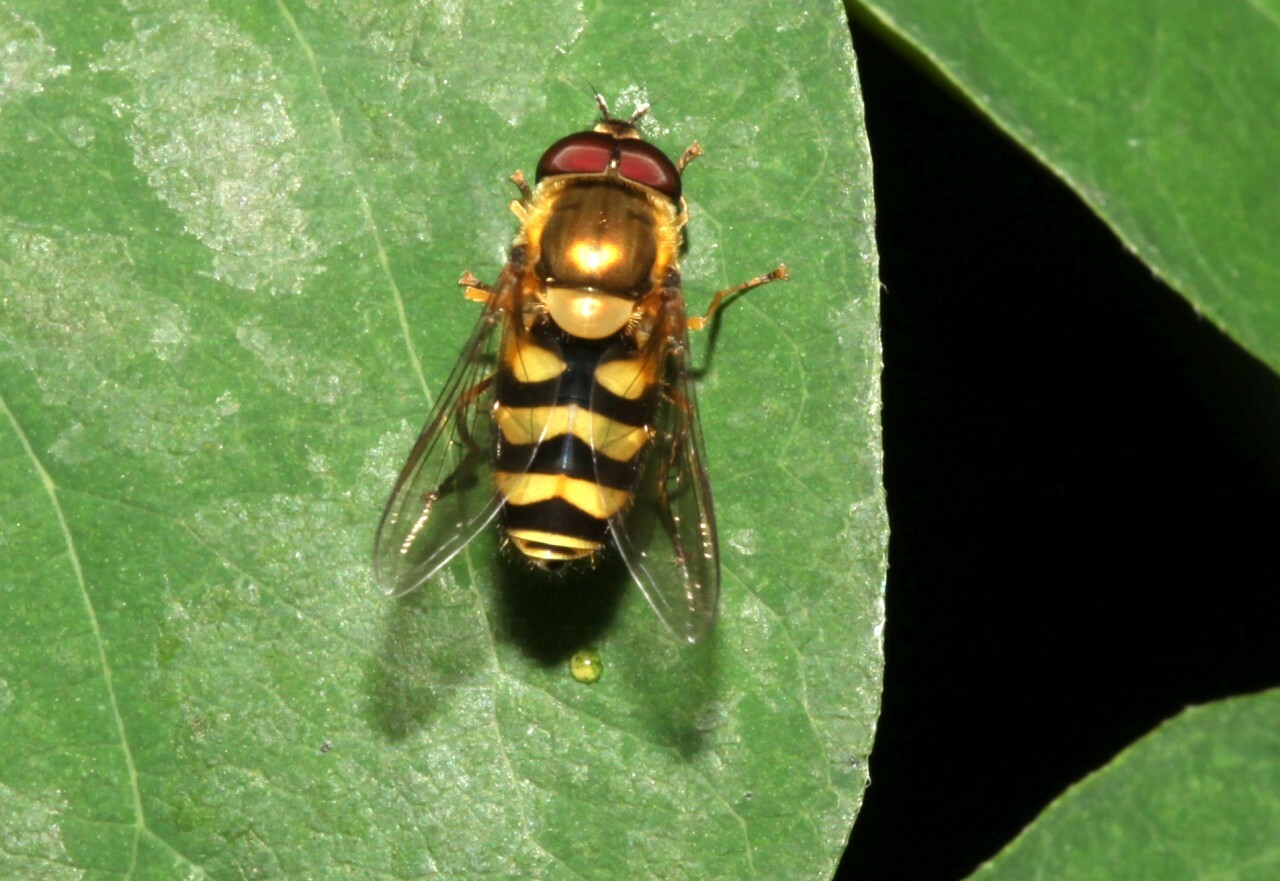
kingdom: Animalia
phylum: Arthropoda
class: Insecta
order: Diptera
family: Syrphidae
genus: Syrphus
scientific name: Syrphus
